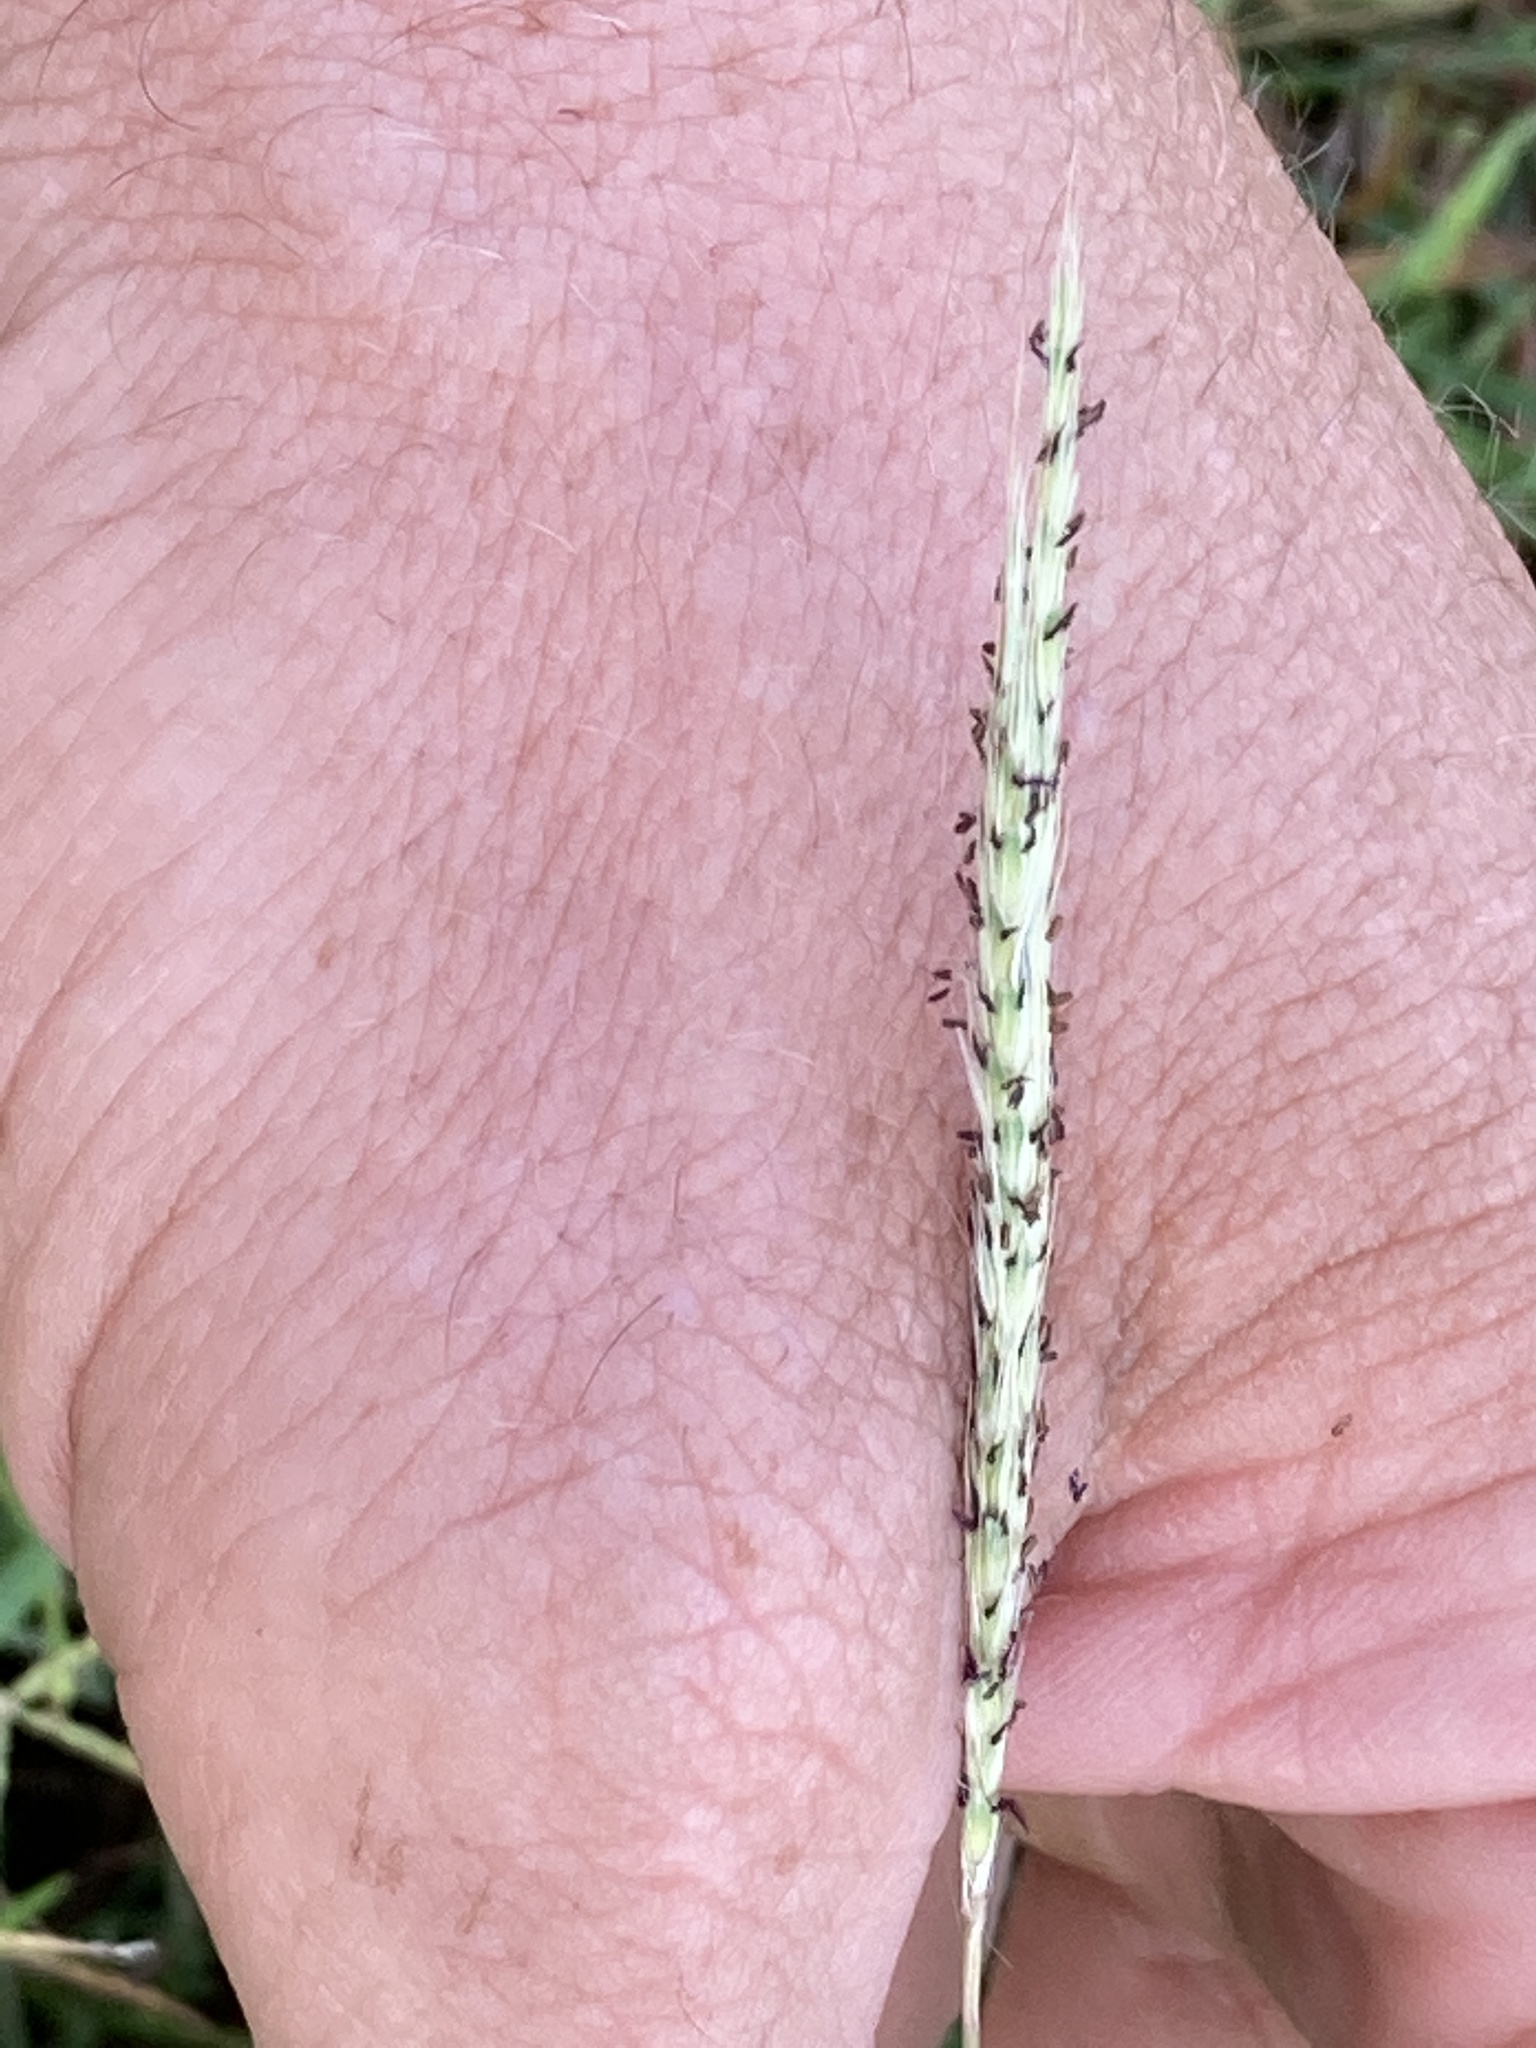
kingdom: Plantae
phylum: Tracheophyta
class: Liliopsida
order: Poales
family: Poaceae
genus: Bothriochloa
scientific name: Bothriochloa torreyana
